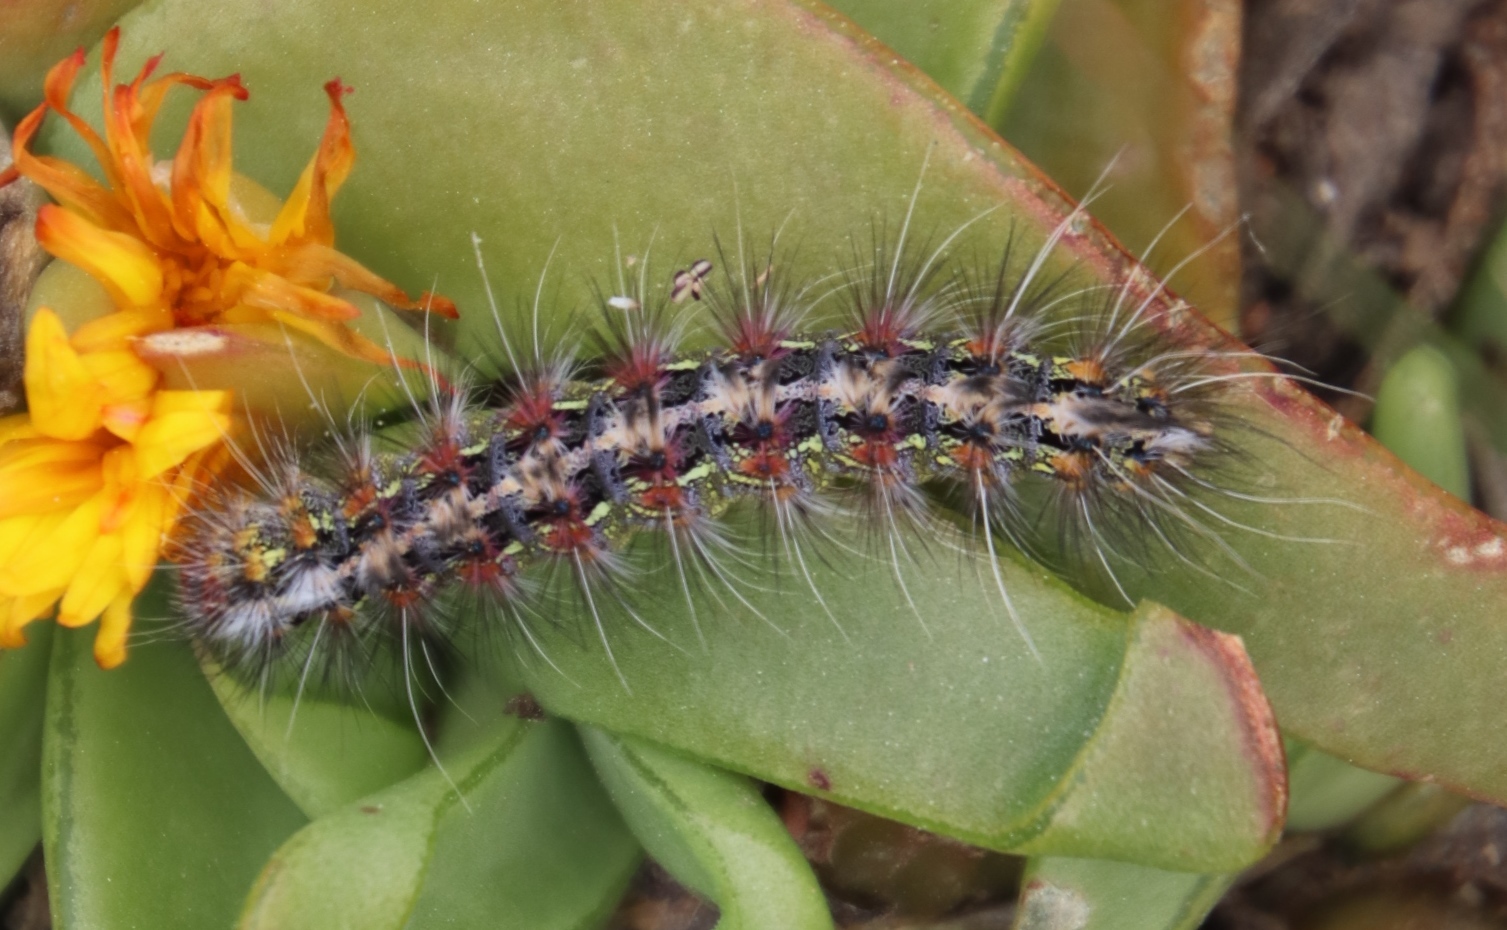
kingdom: Animalia
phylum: Arthropoda
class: Insecta
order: Lepidoptera
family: Erebidae
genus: Paralacydes
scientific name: Paralacydes vocula
